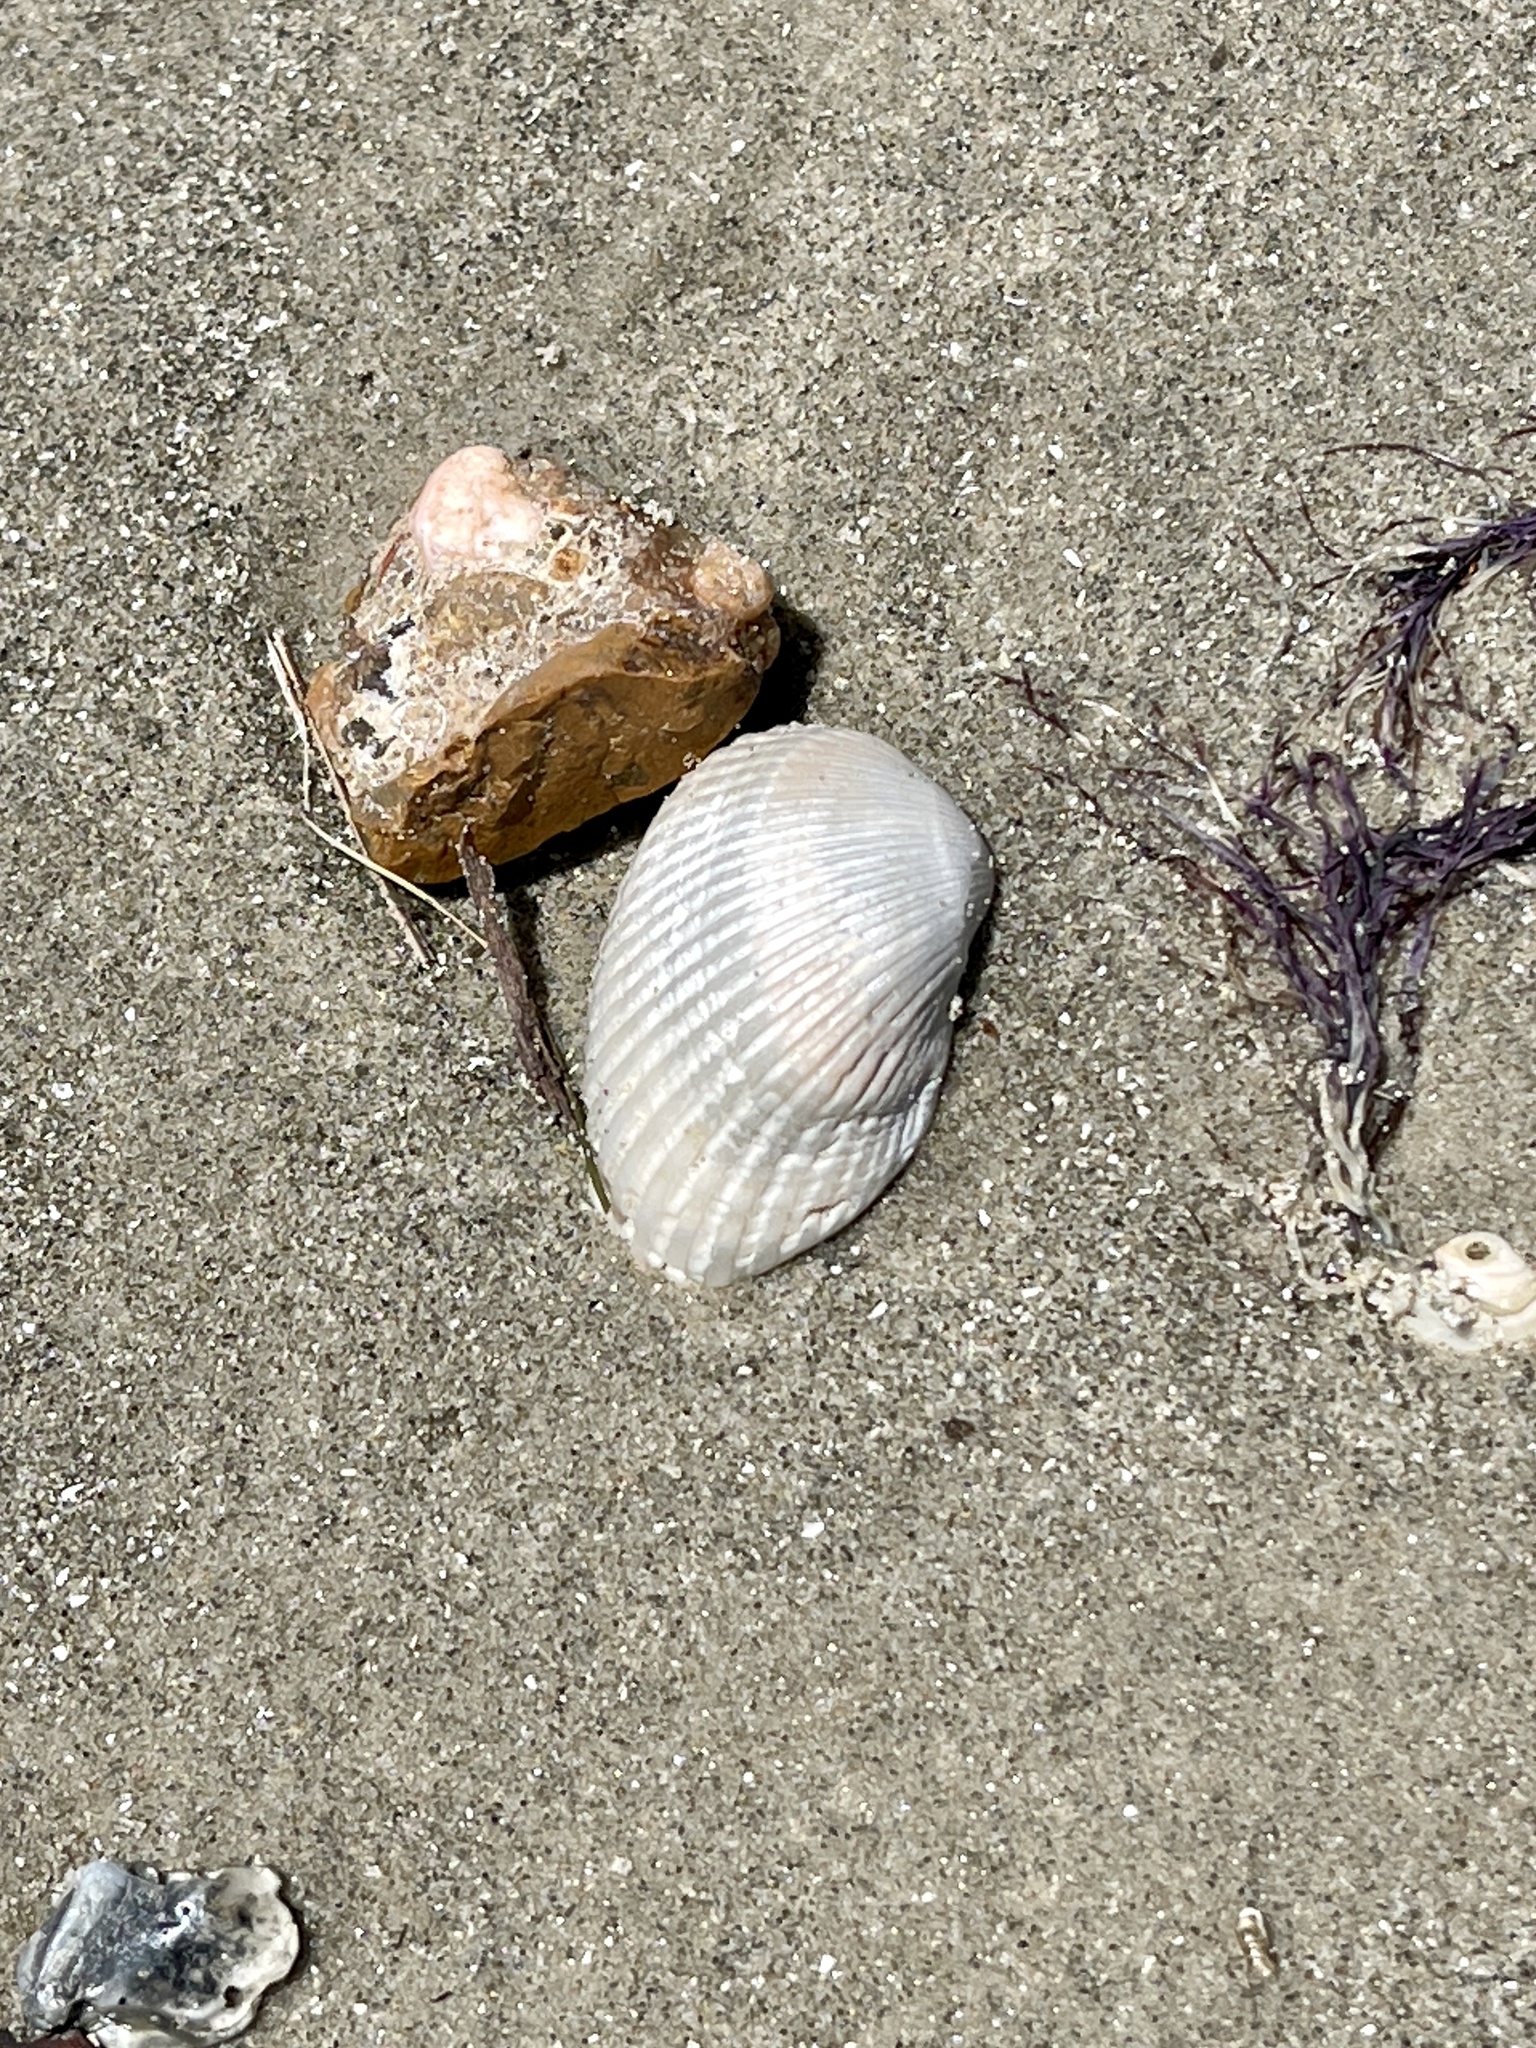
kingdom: Animalia
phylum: Mollusca
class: Bivalvia
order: Arcida
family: Arcidae
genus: Anadara
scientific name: Anadara transversa
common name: Transverse ark
